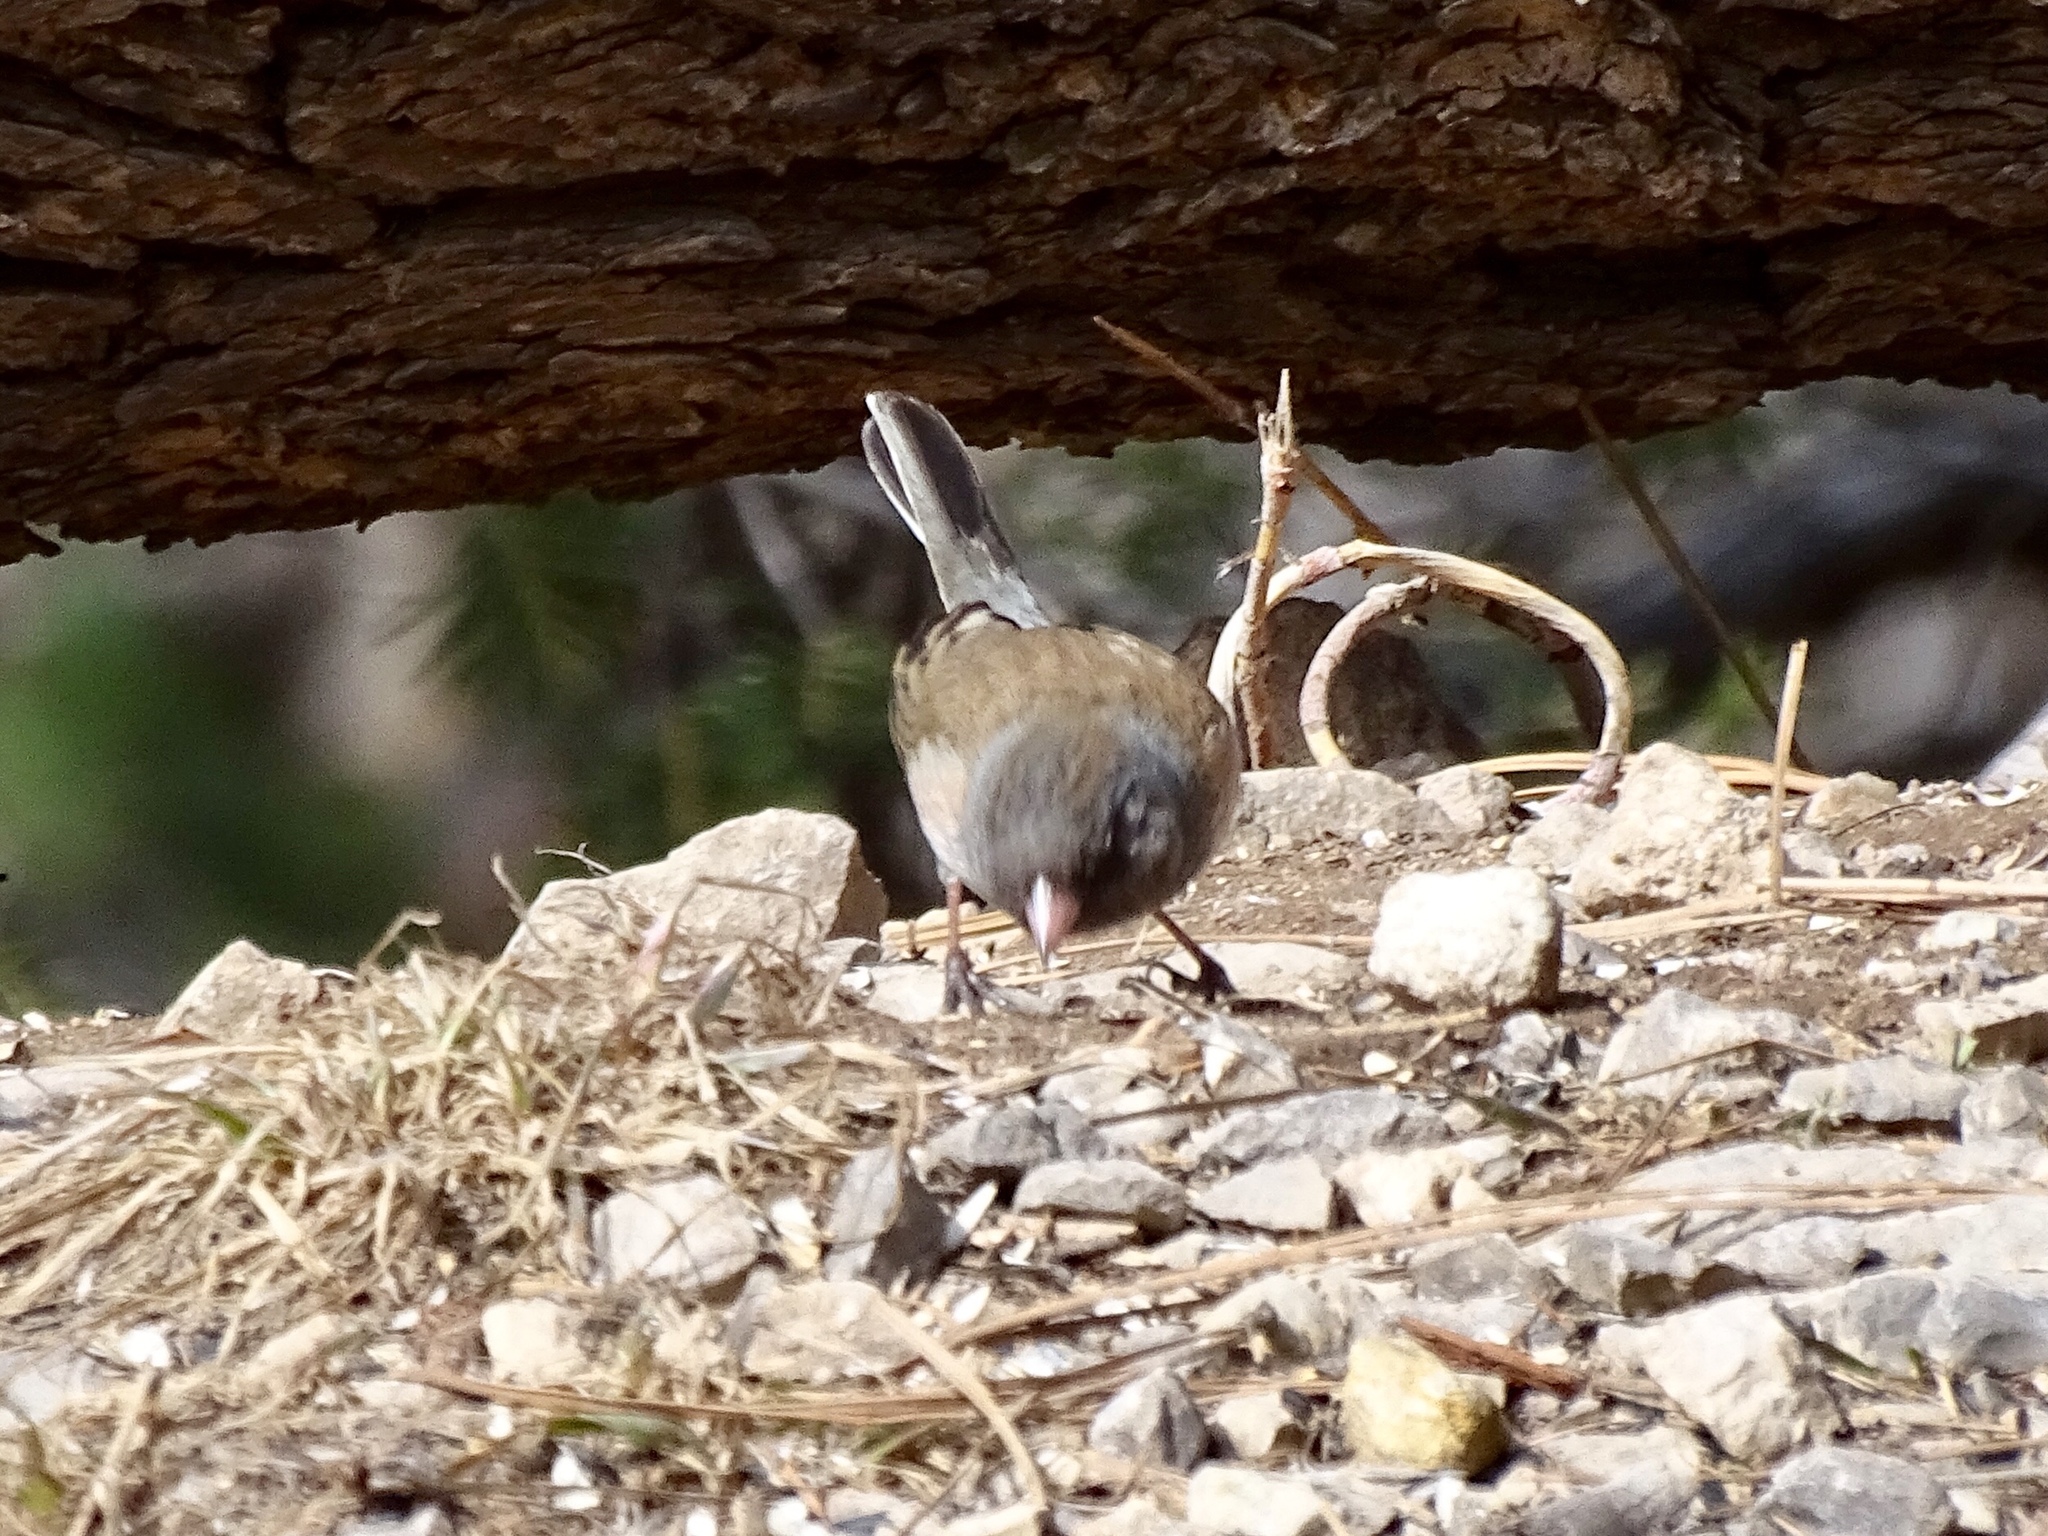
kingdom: Animalia
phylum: Chordata
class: Aves
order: Passeriformes
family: Passerellidae
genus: Junco
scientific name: Junco hyemalis
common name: Dark-eyed junco
